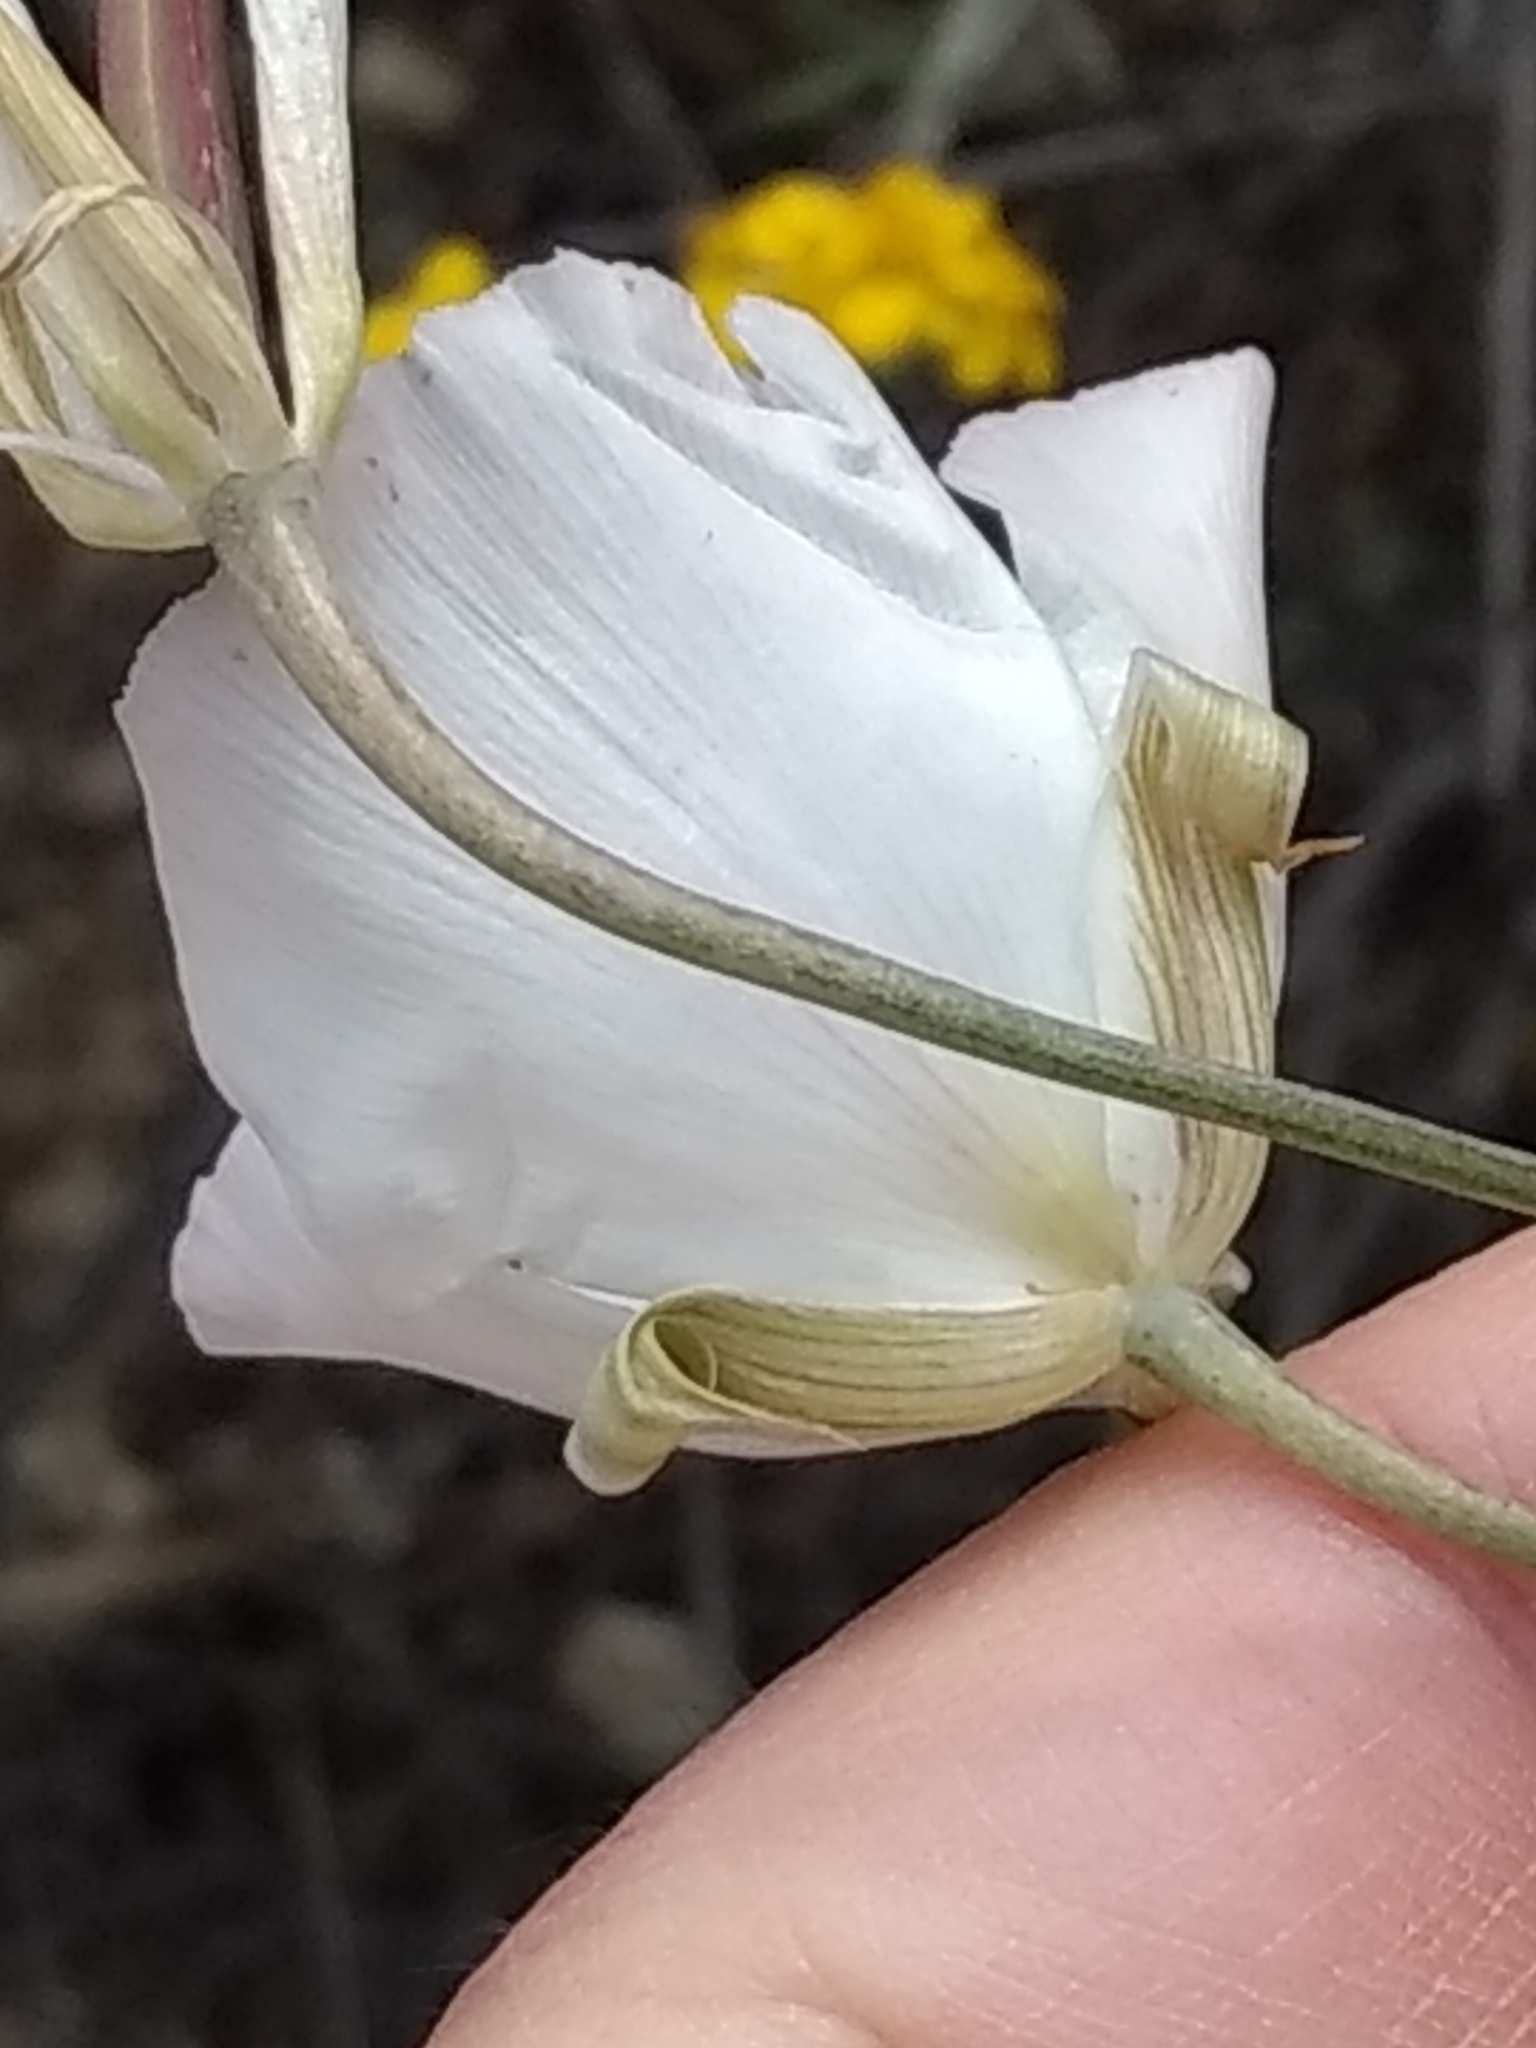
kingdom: Plantae
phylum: Tracheophyta
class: Liliopsida
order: Liliales
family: Liliaceae
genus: Calochortus
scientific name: Calochortus splendens
